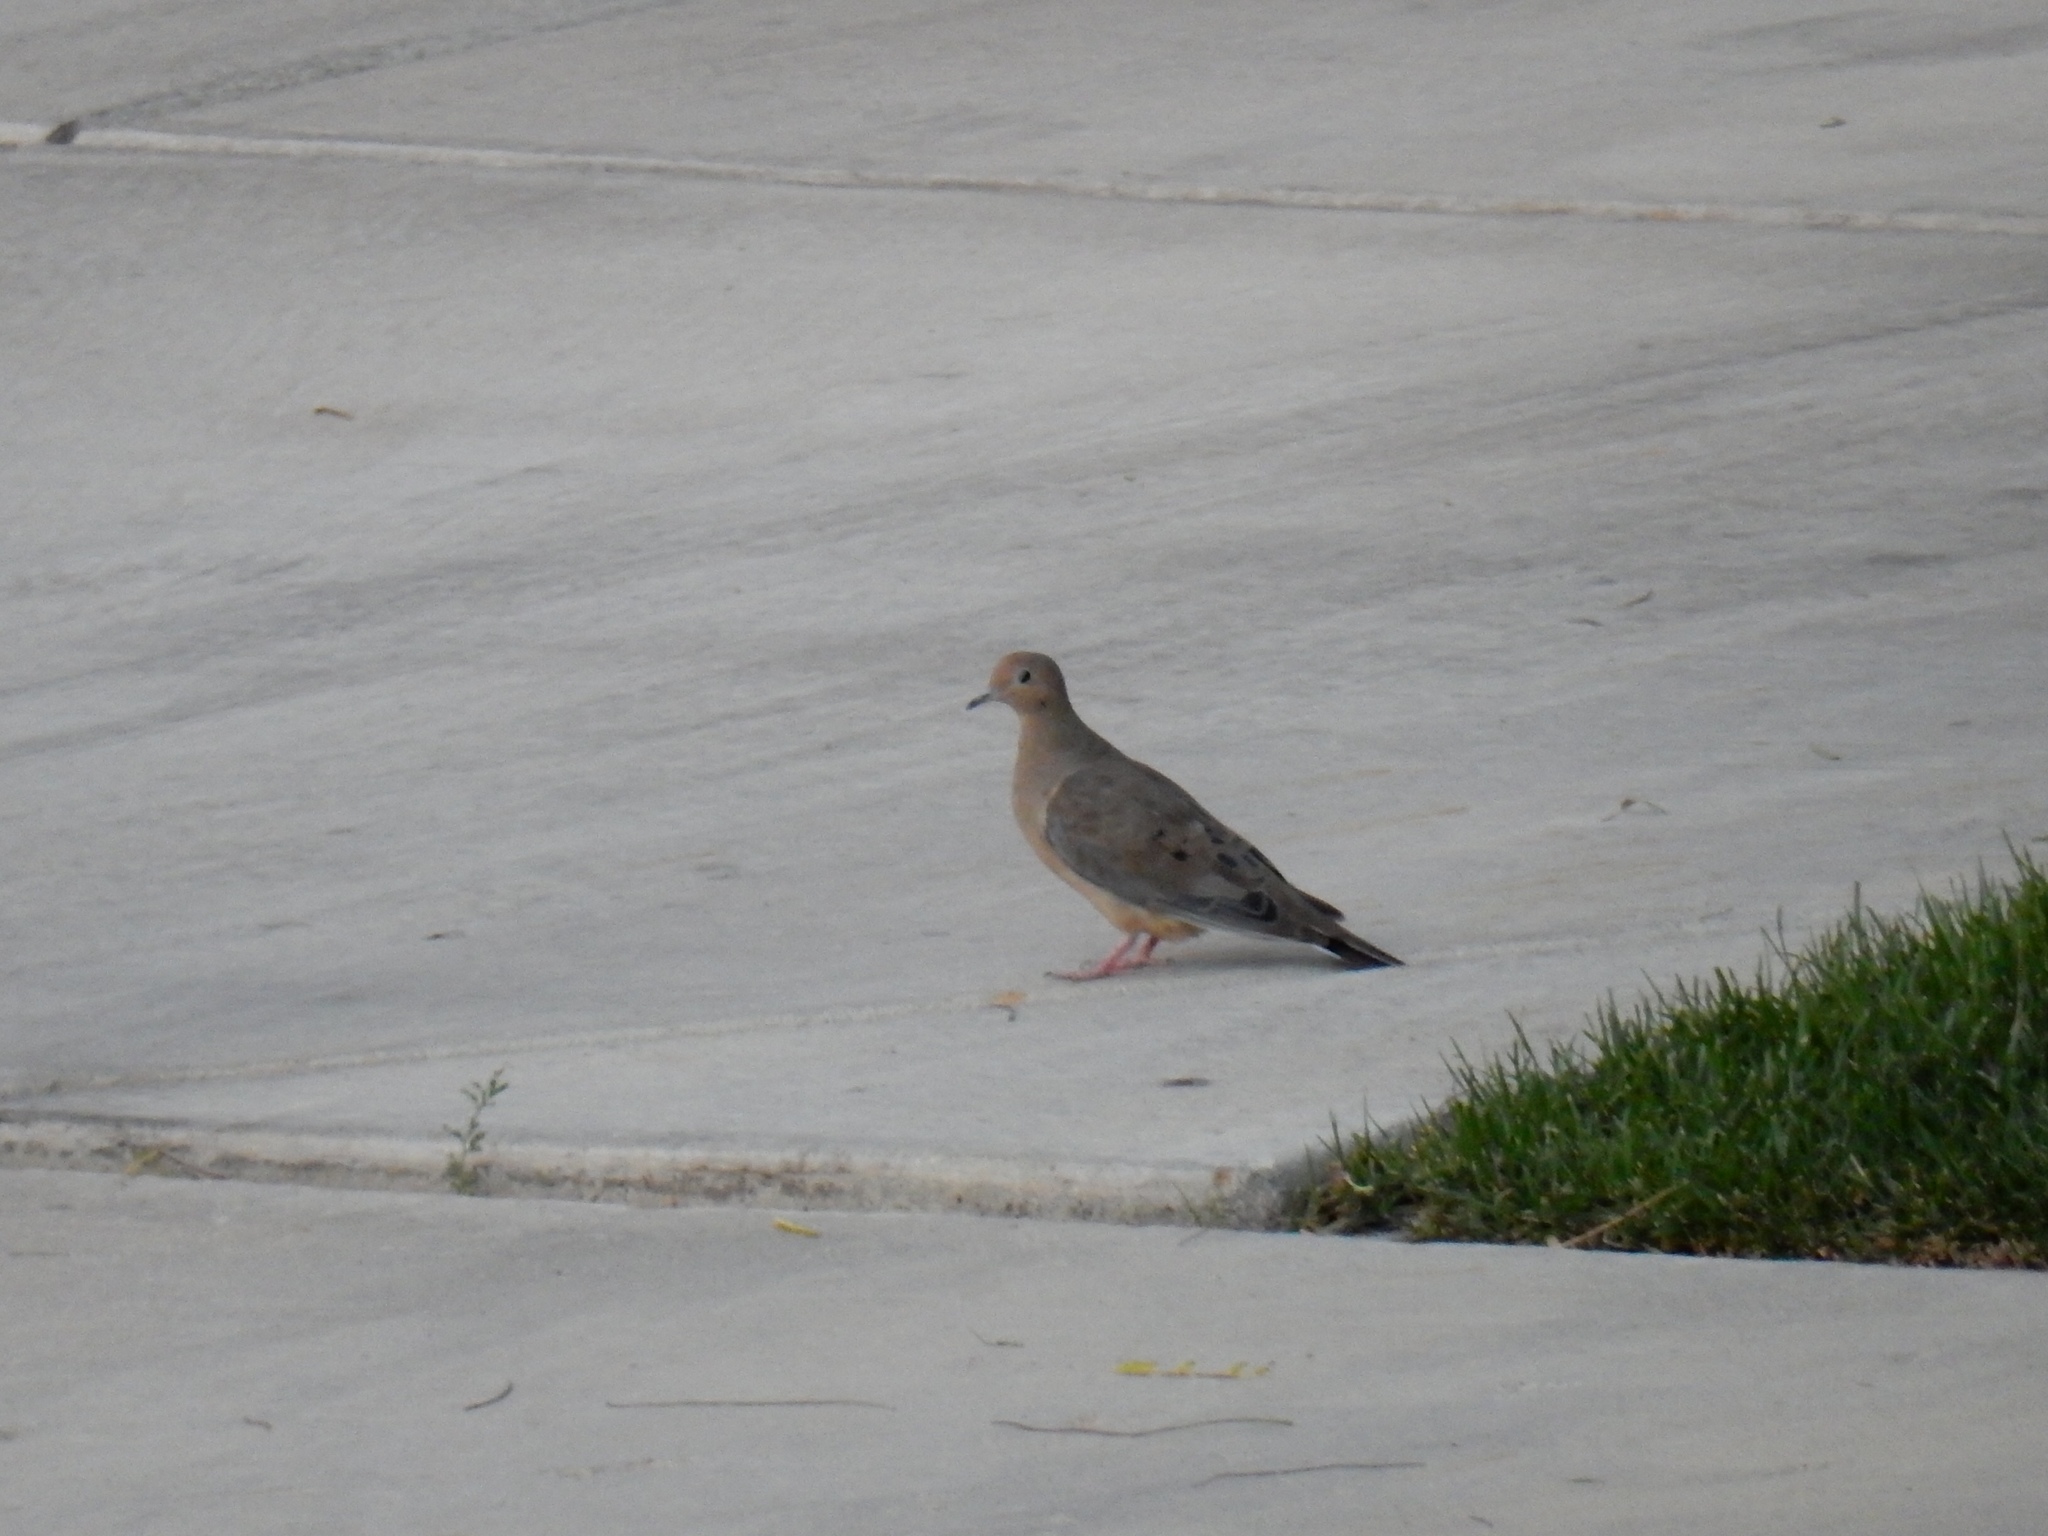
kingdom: Animalia
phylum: Chordata
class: Aves
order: Columbiformes
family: Columbidae
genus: Zenaida
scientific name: Zenaida macroura
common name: Mourning dove
